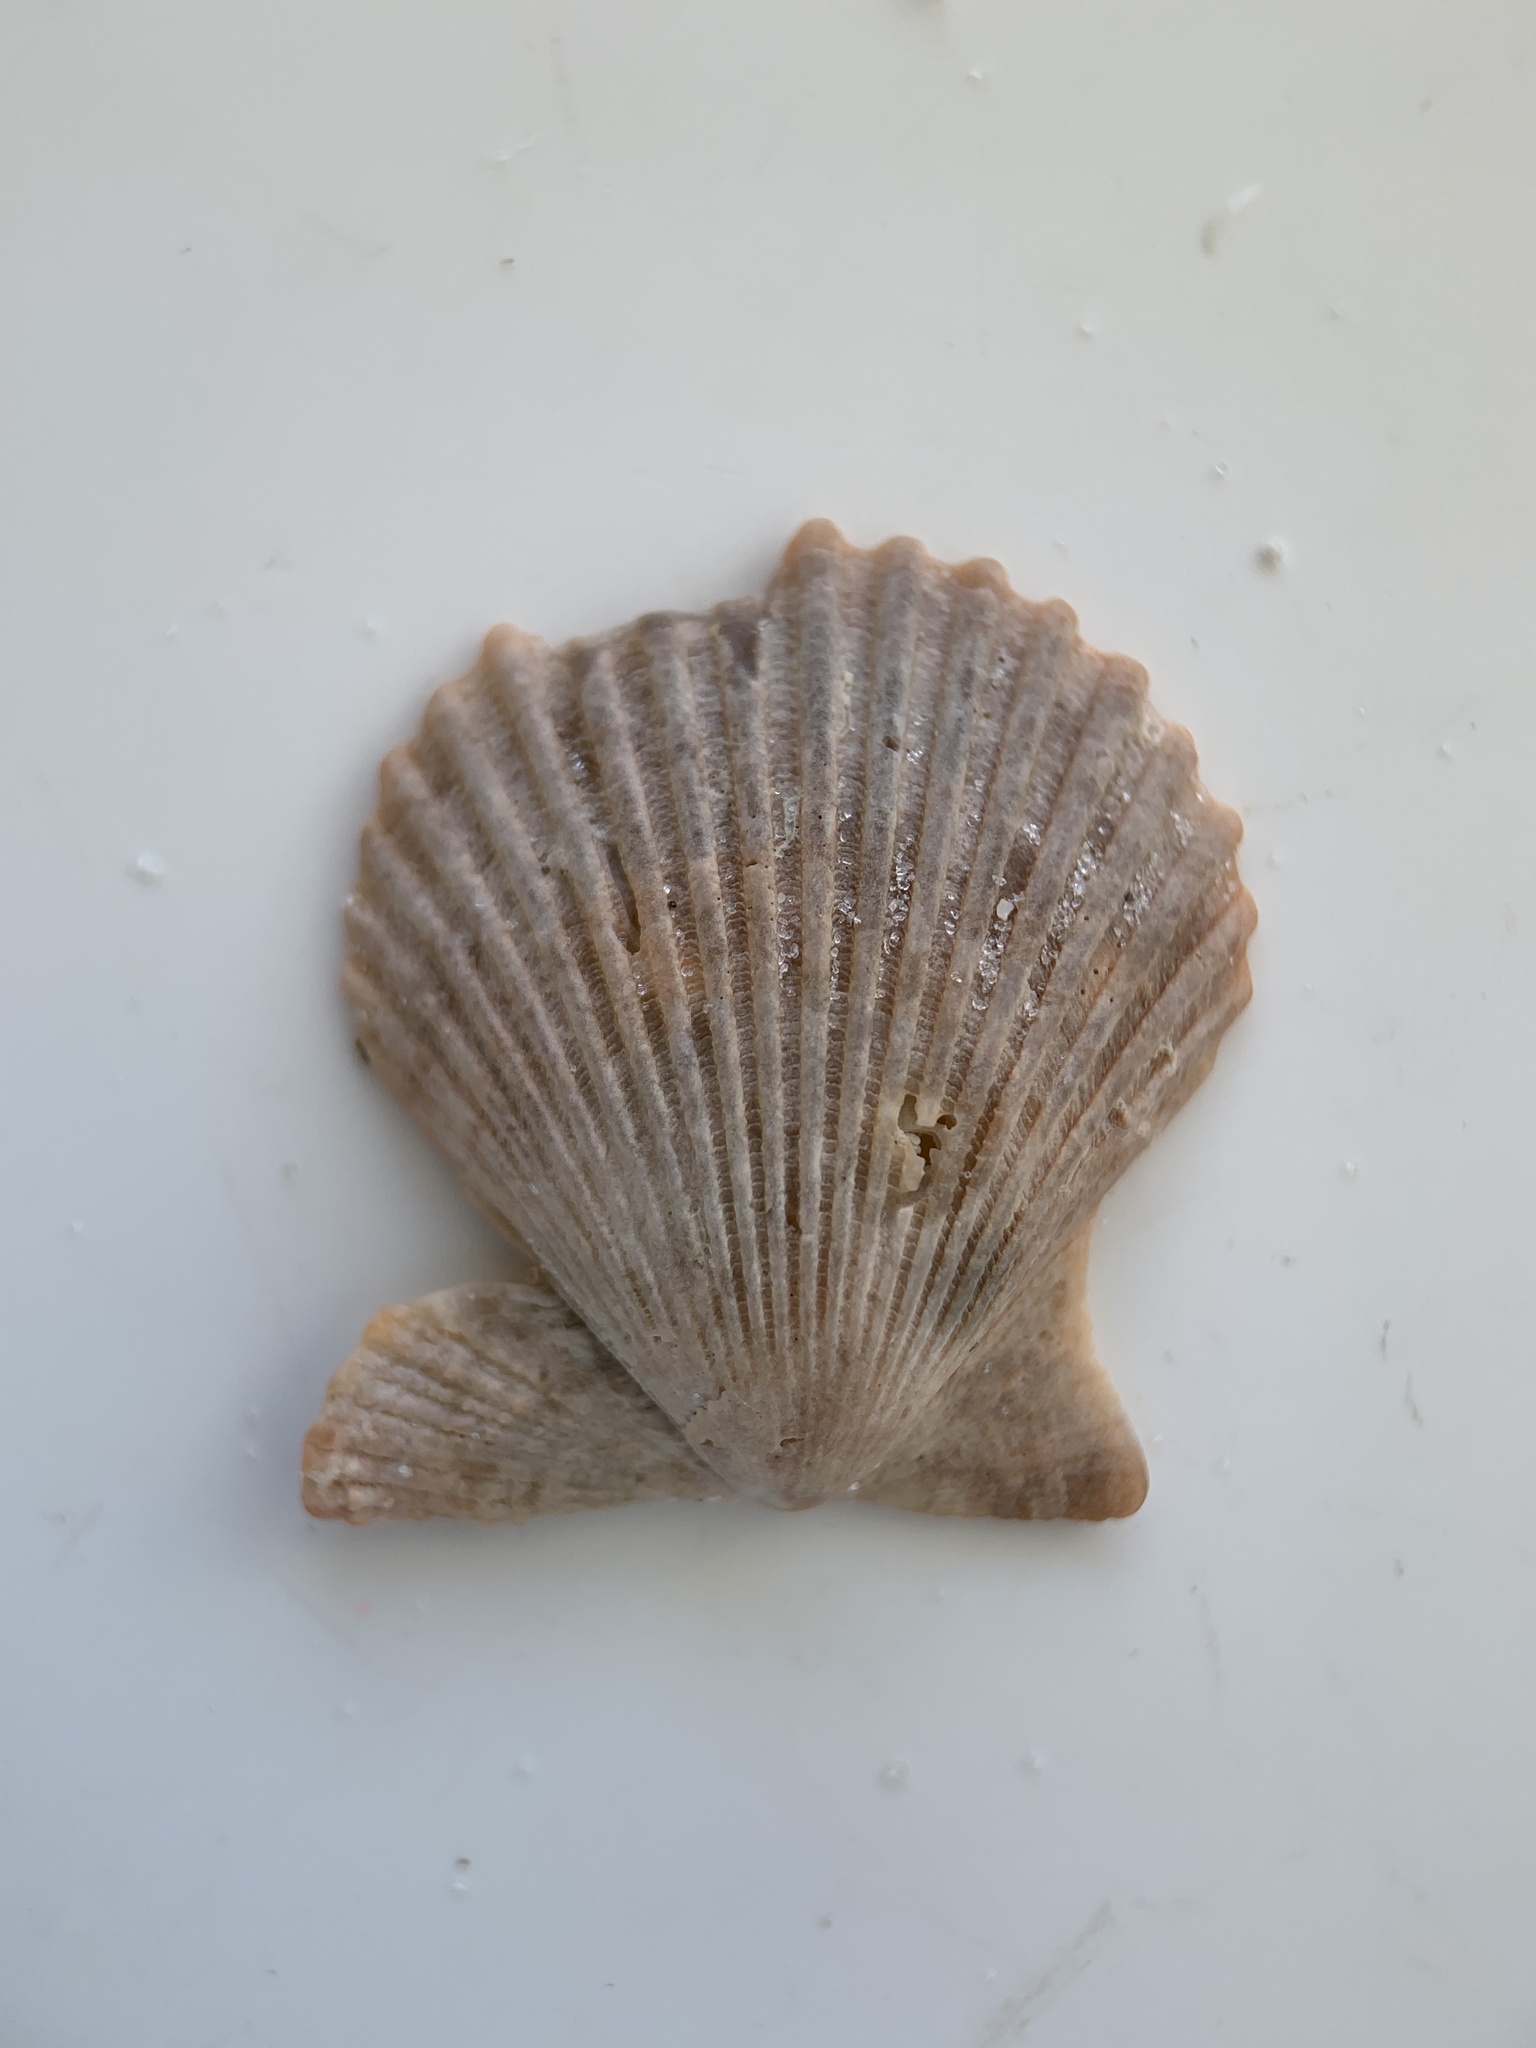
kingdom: Animalia
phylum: Mollusca
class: Bivalvia
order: Pectinida
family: Pectinidae
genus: Lindapecten
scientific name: Lindapecten muscosus
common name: Rough scallop
